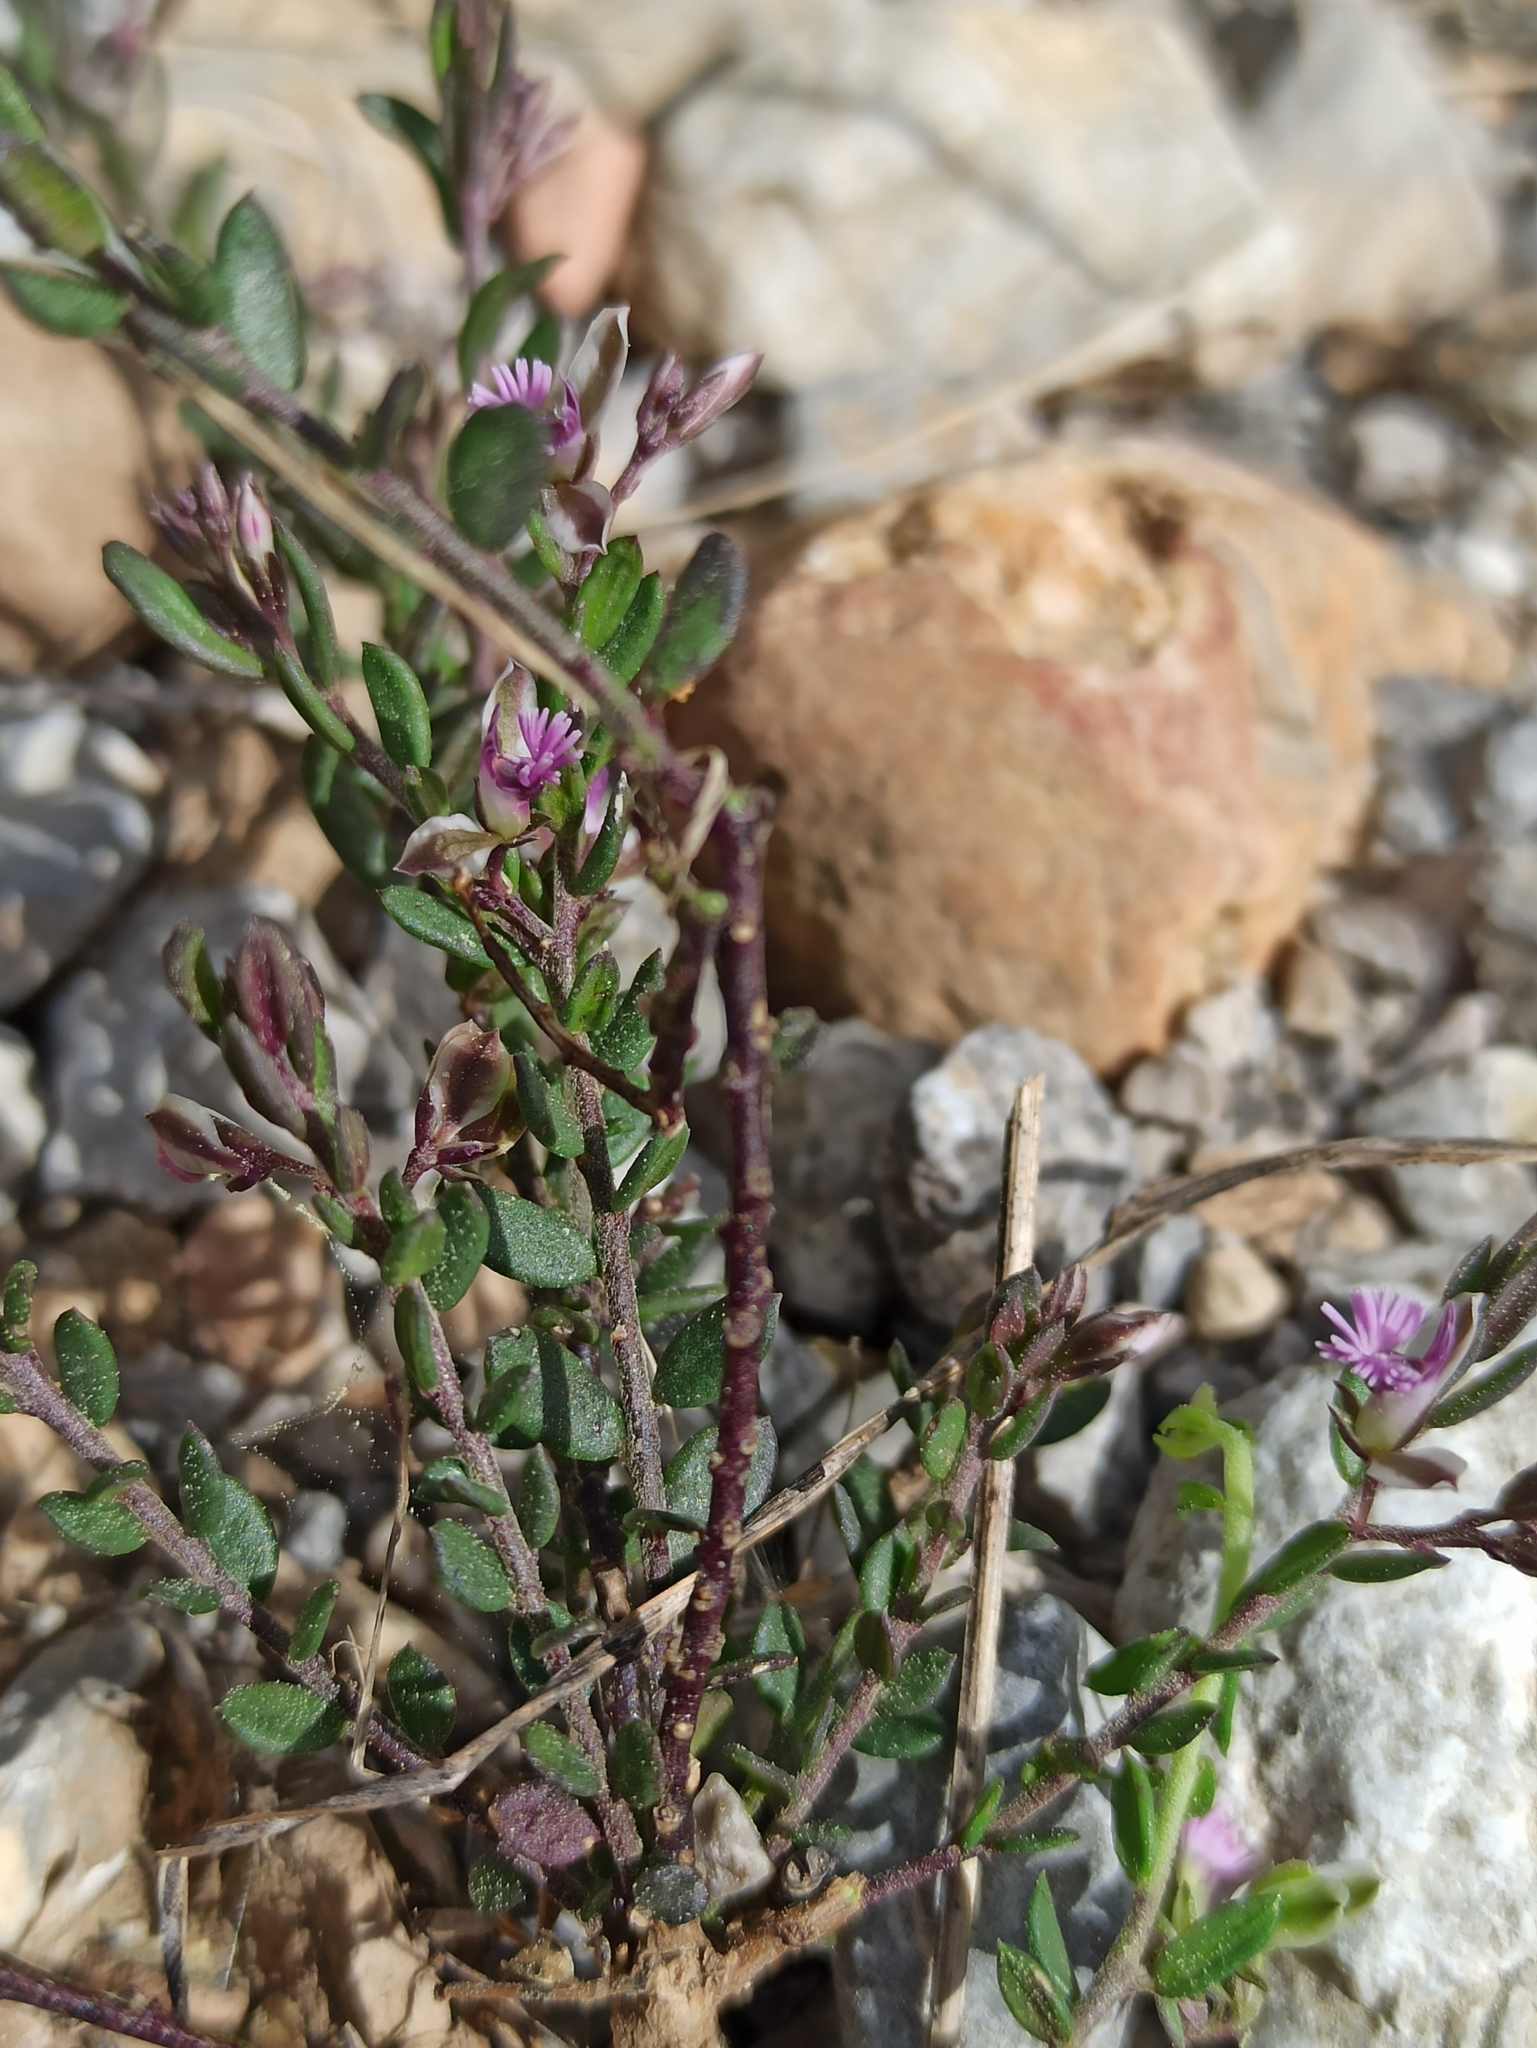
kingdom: Plantae
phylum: Tracheophyta
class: Magnoliopsida
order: Fabales
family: Polygalaceae
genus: Polygala
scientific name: Polygala rupestris
